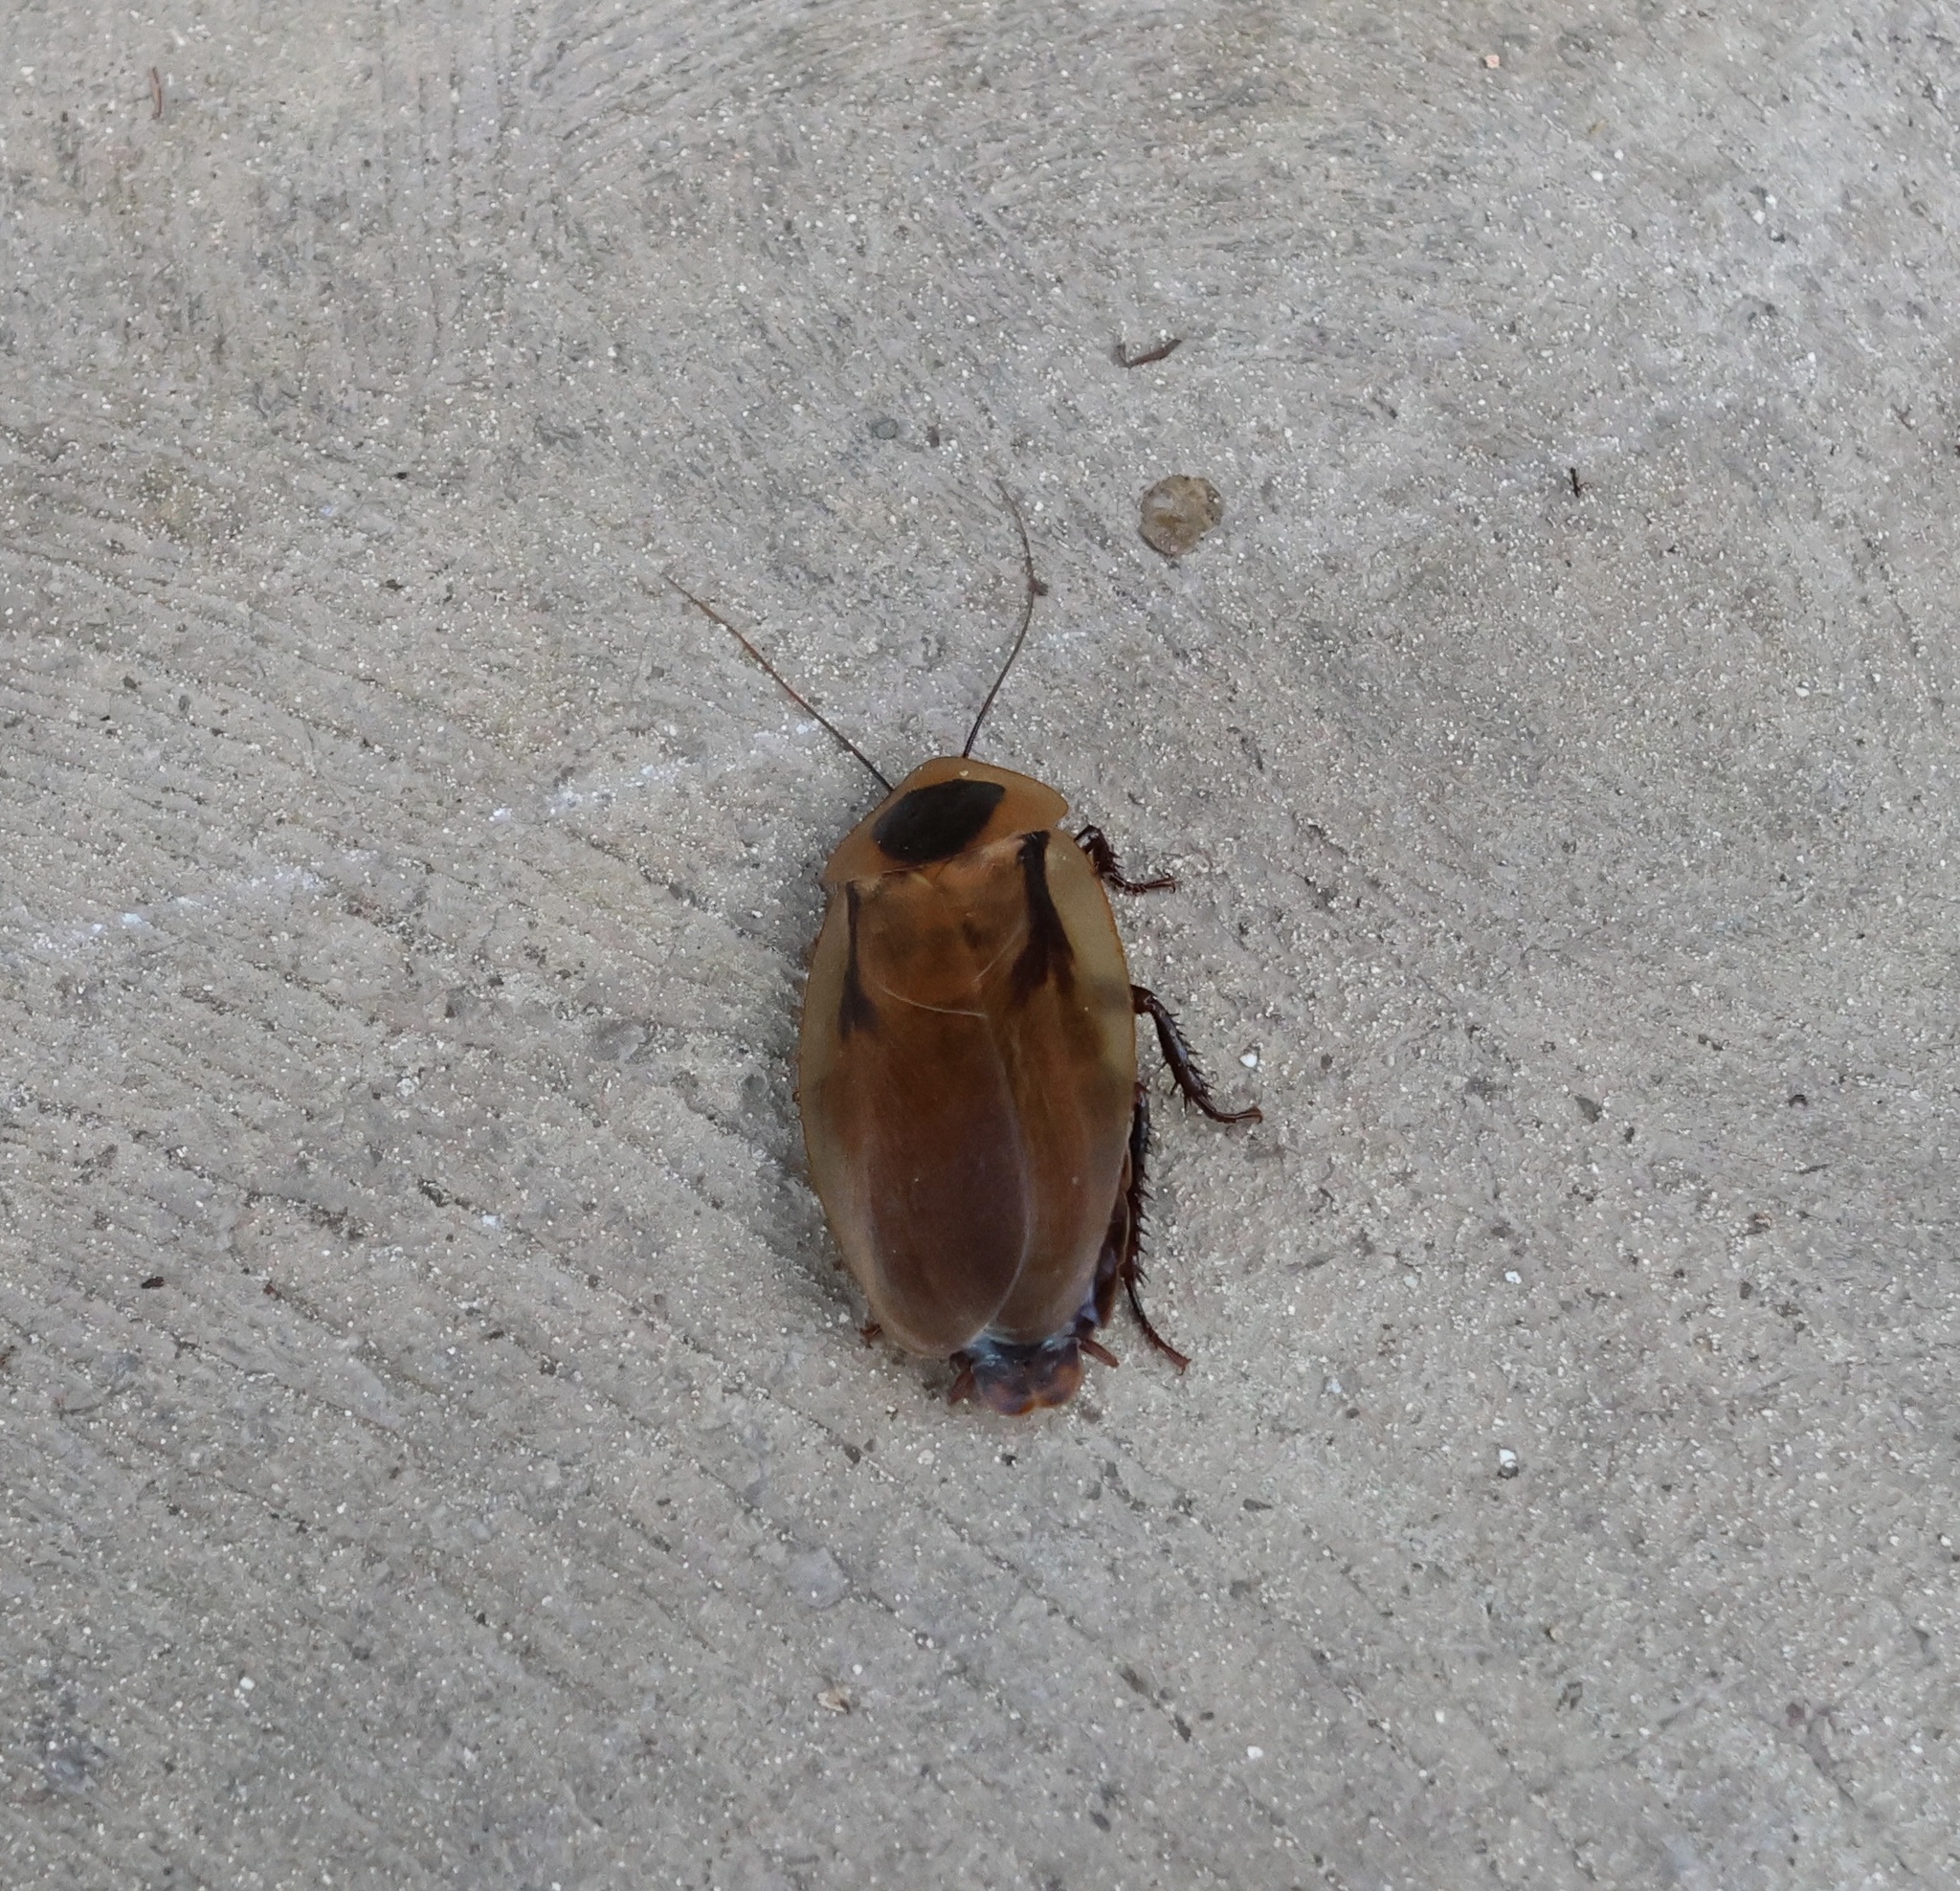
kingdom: Animalia
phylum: Arthropoda
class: Insecta
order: Blattodea
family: Blaberidae
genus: Blaberus
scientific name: Blaberus discoidalis
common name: Discoid cockroach
